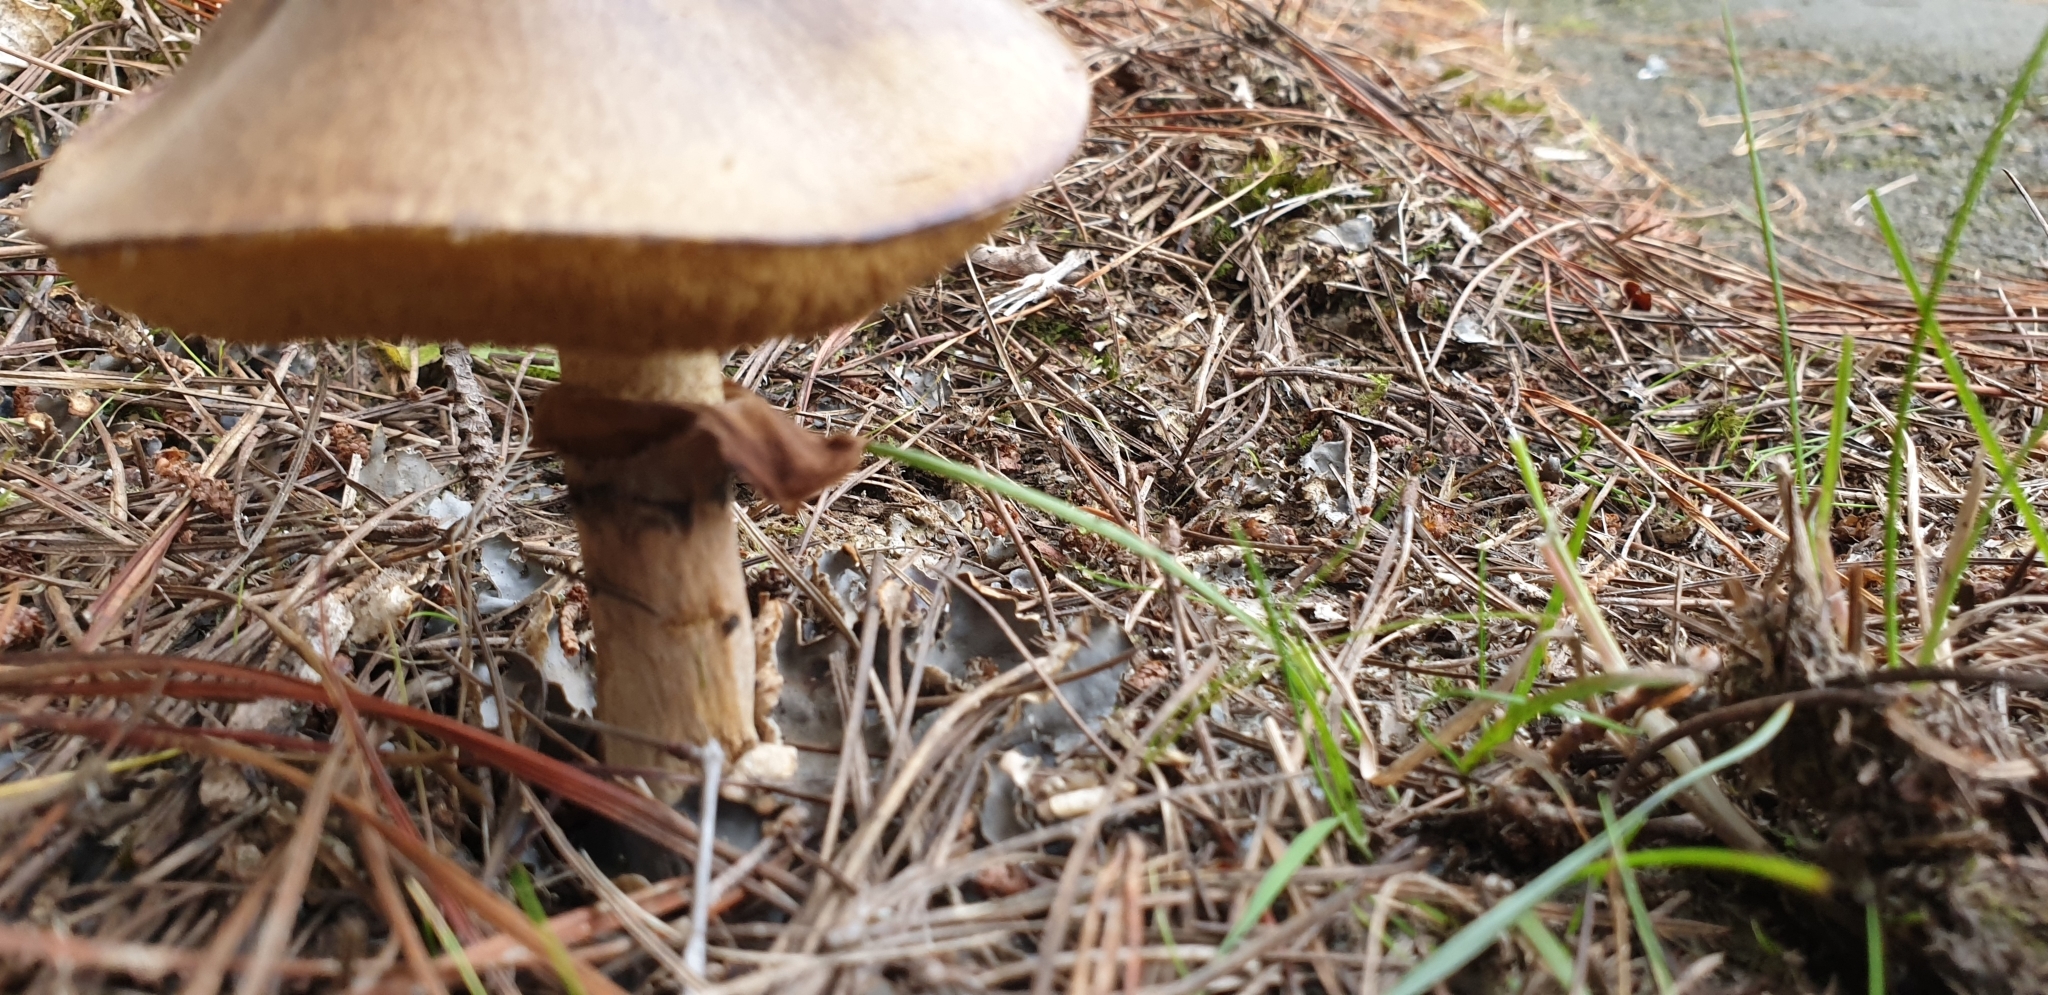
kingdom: Fungi
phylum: Basidiomycota
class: Agaricomycetes
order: Boletales
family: Suillaceae
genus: Suillus
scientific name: Suillus luteus
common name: Slippery jack
